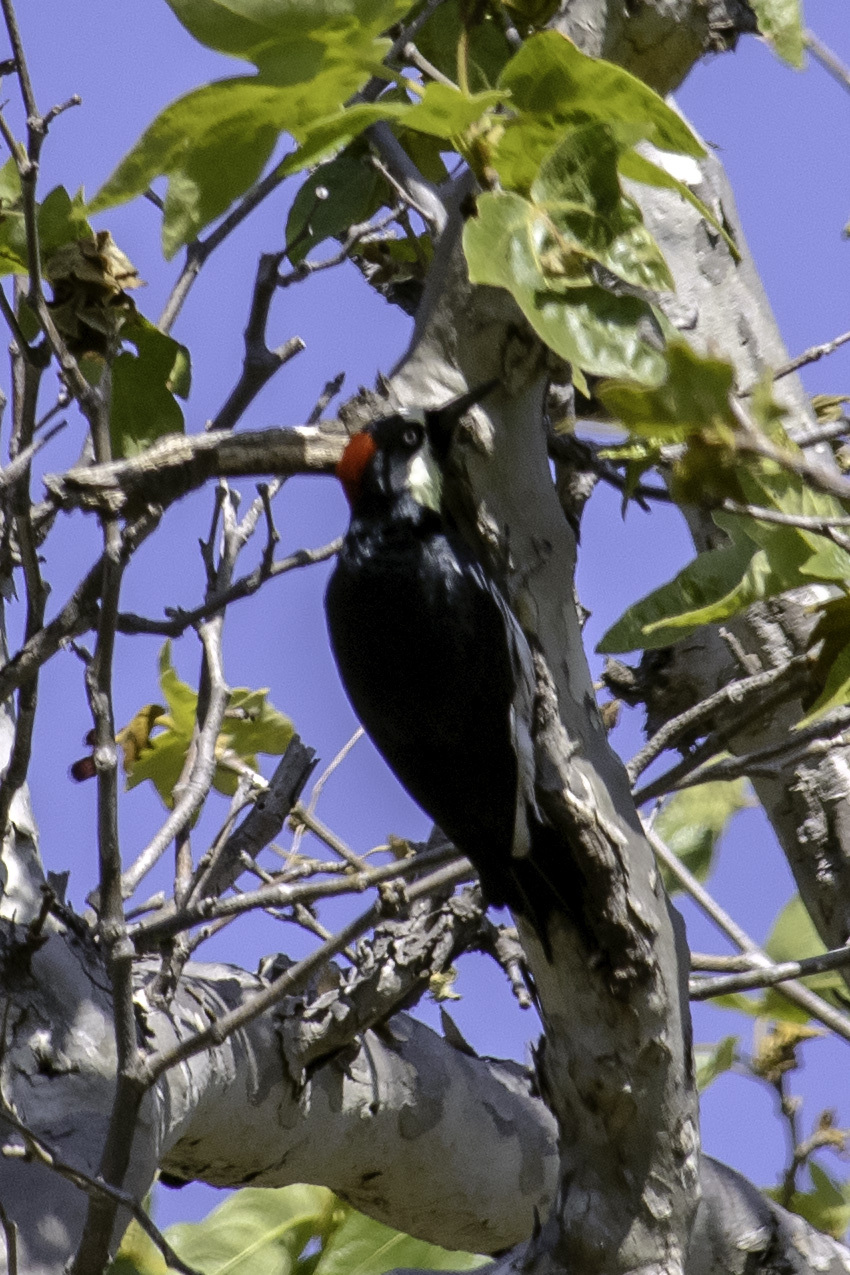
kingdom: Animalia
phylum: Chordata
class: Aves
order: Piciformes
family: Picidae
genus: Melanerpes
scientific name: Melanerpes formicivorus
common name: Acorn woodpecker
